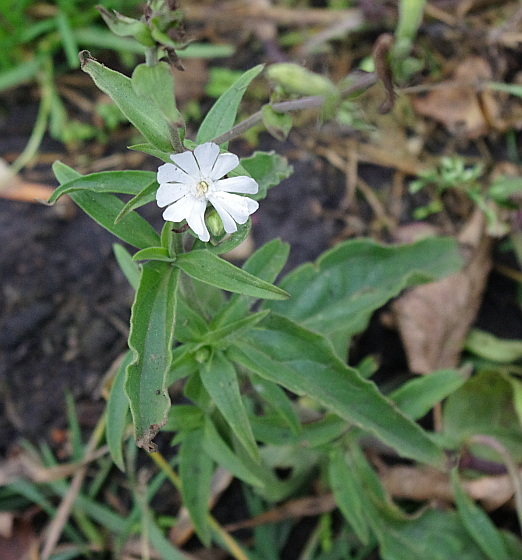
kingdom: Plantae
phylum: Tracheophyta
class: Magnoliopsida
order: Caryophyllales
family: Caryophyllaceae
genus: Silene
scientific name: Silene latifolia
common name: White campion
